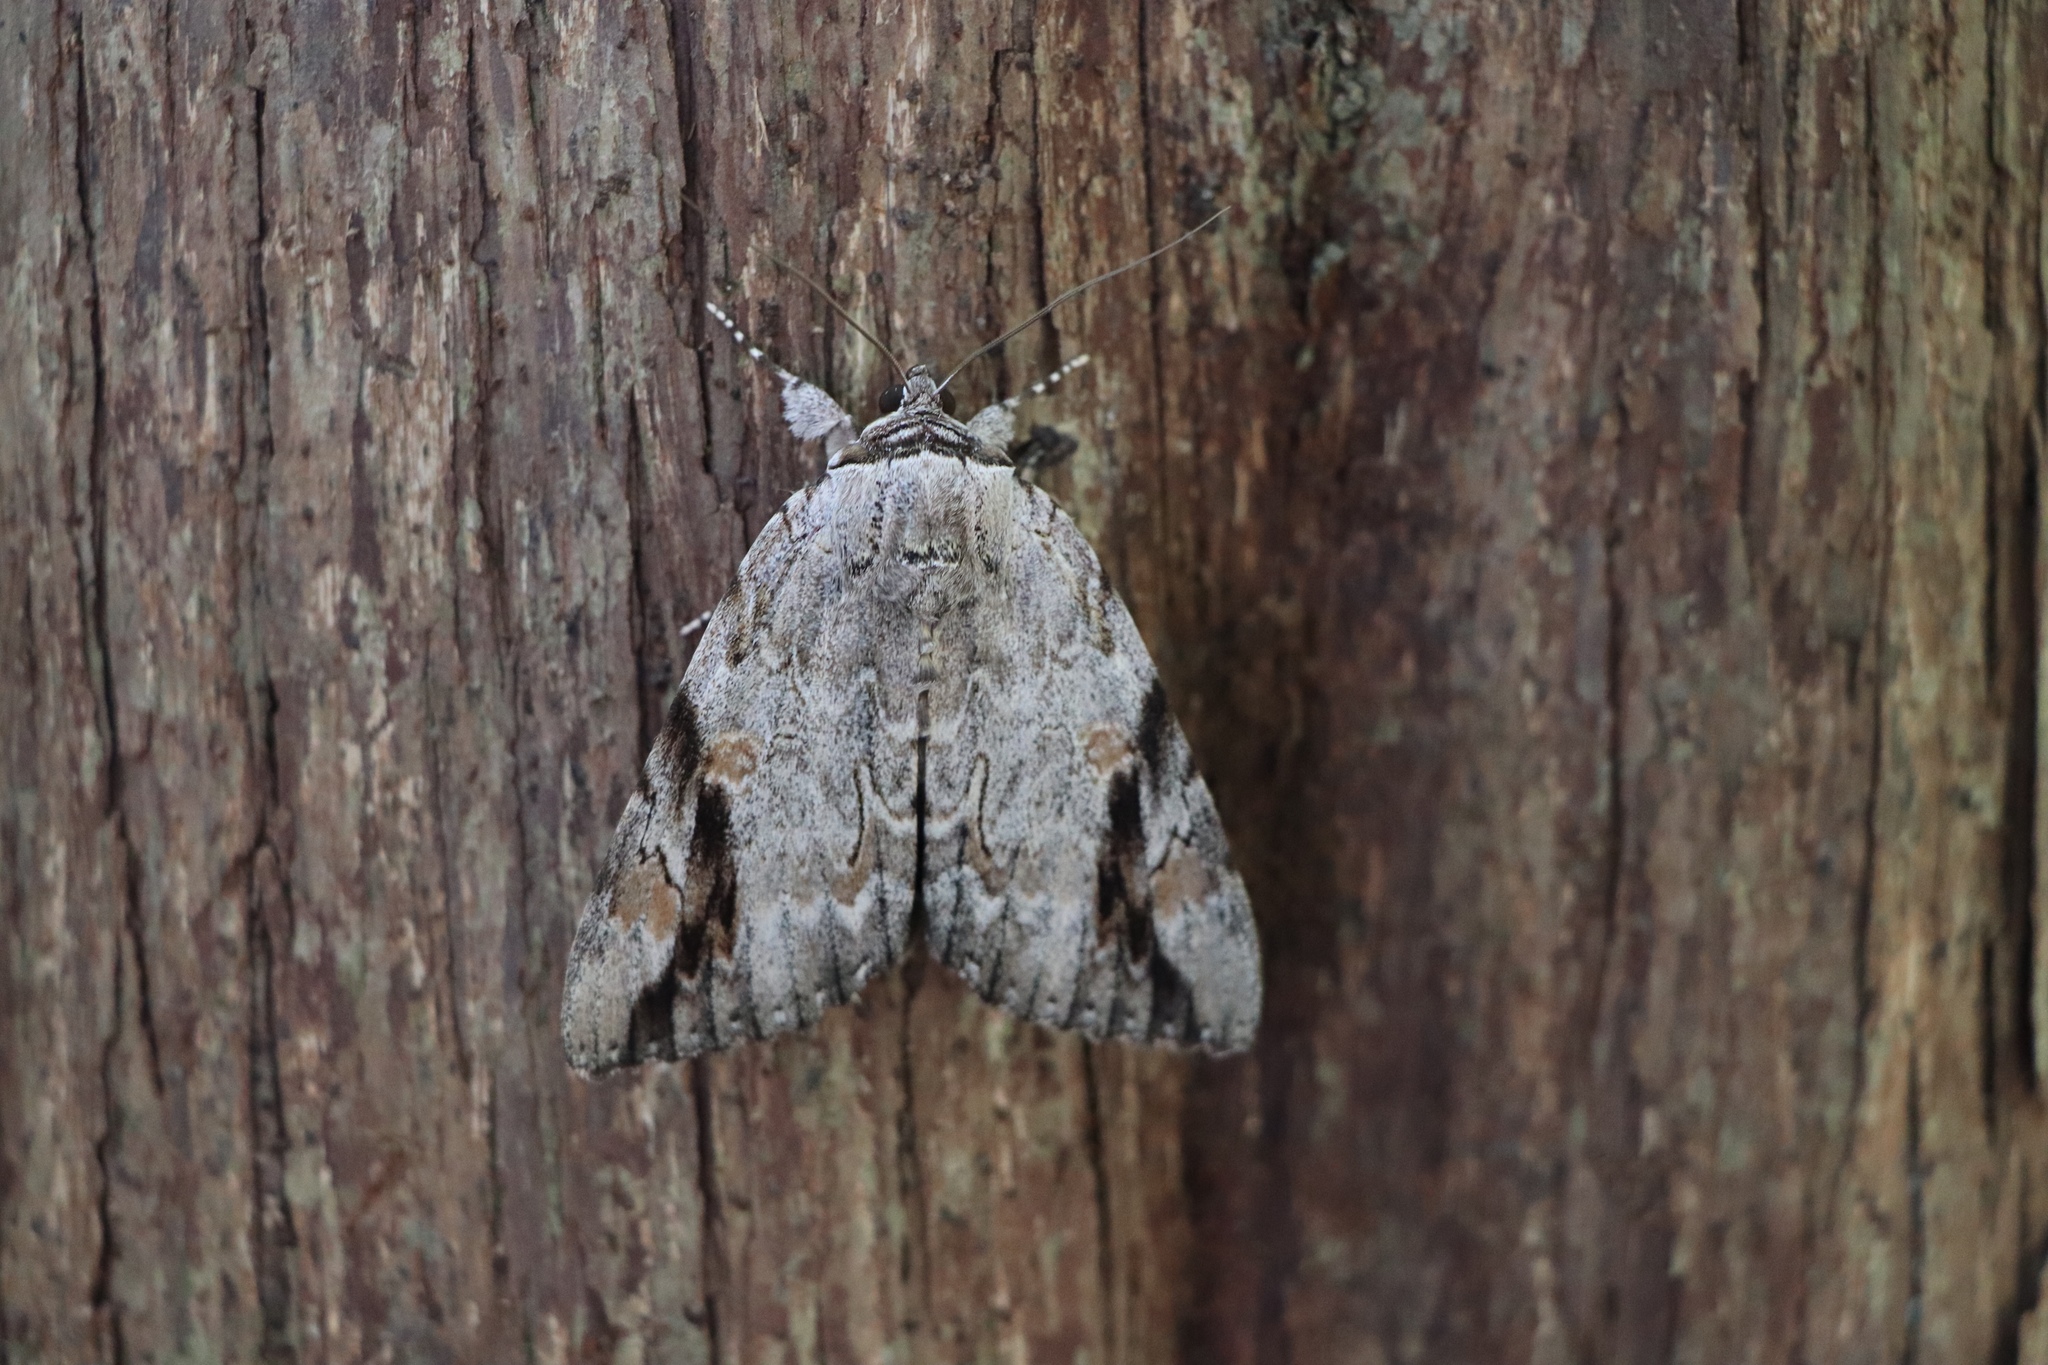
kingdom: Animalia
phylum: Arthropoda
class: Insecta
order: Lepidoptera
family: Erebidae
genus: Catocala
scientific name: Catocala maestosa
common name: Sad underwing
